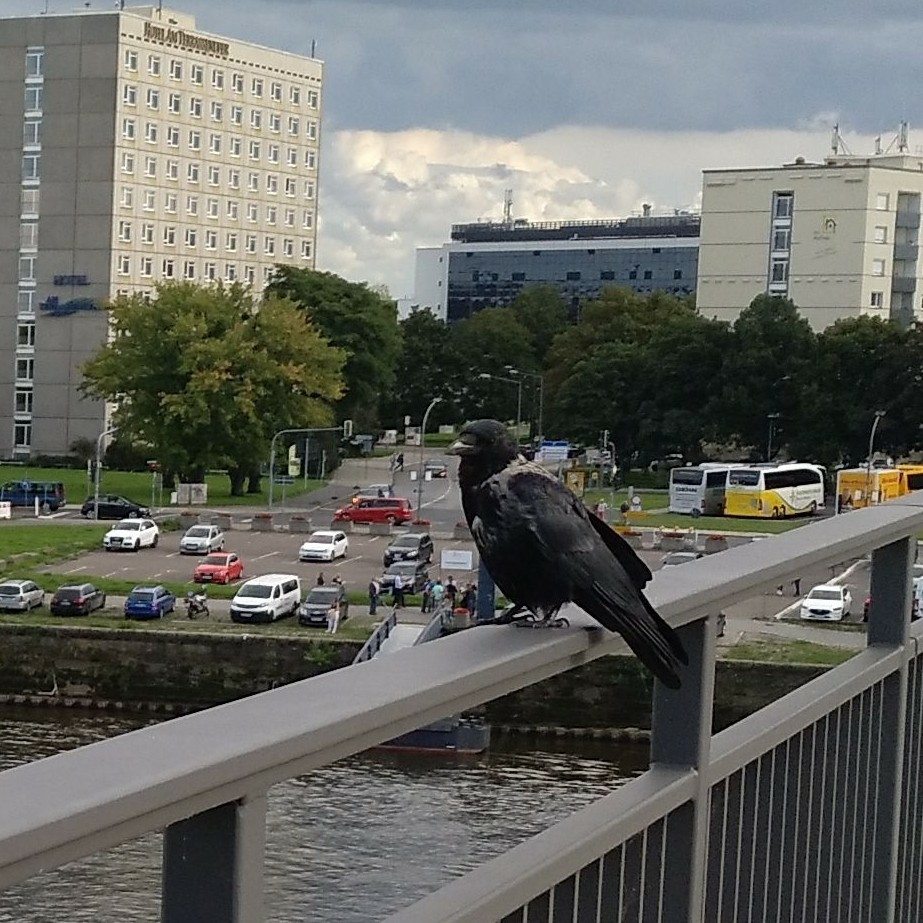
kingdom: Animalia
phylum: Chordata
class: Aves
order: Passeriformes
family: Corvidae
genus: Corvus
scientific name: Corvus
